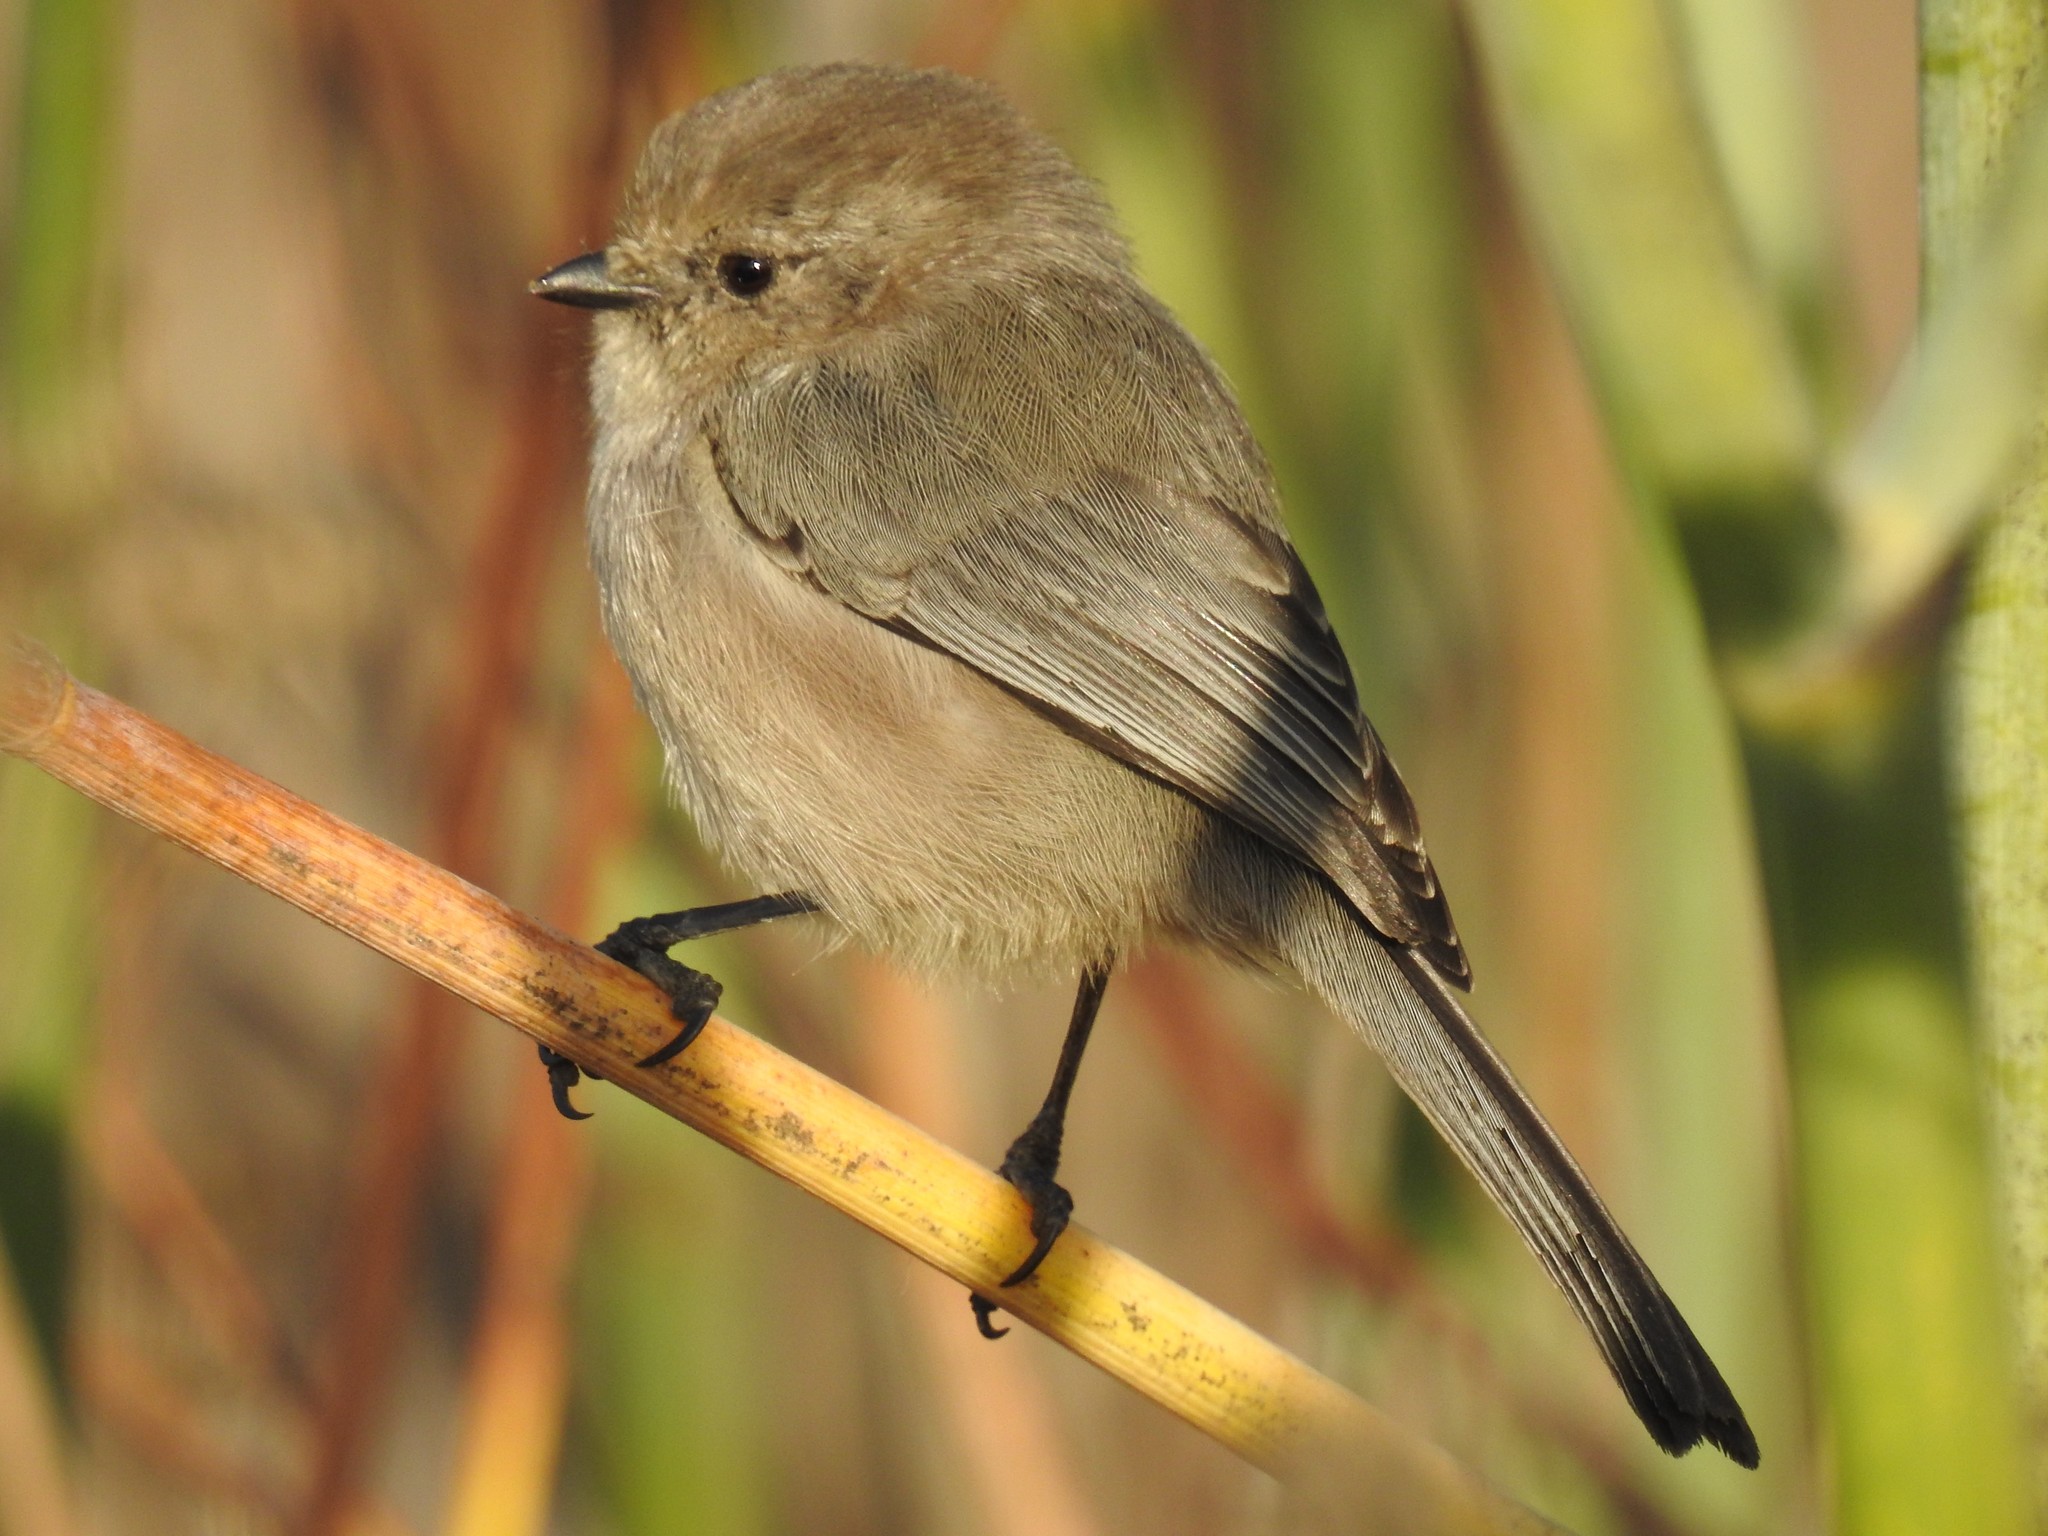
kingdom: Animalia
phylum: Chordata
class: Aves
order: Passeriformes
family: Aegithalidae
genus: Psaltriparus
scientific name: Psaltriparus minimus
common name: American bushtit
